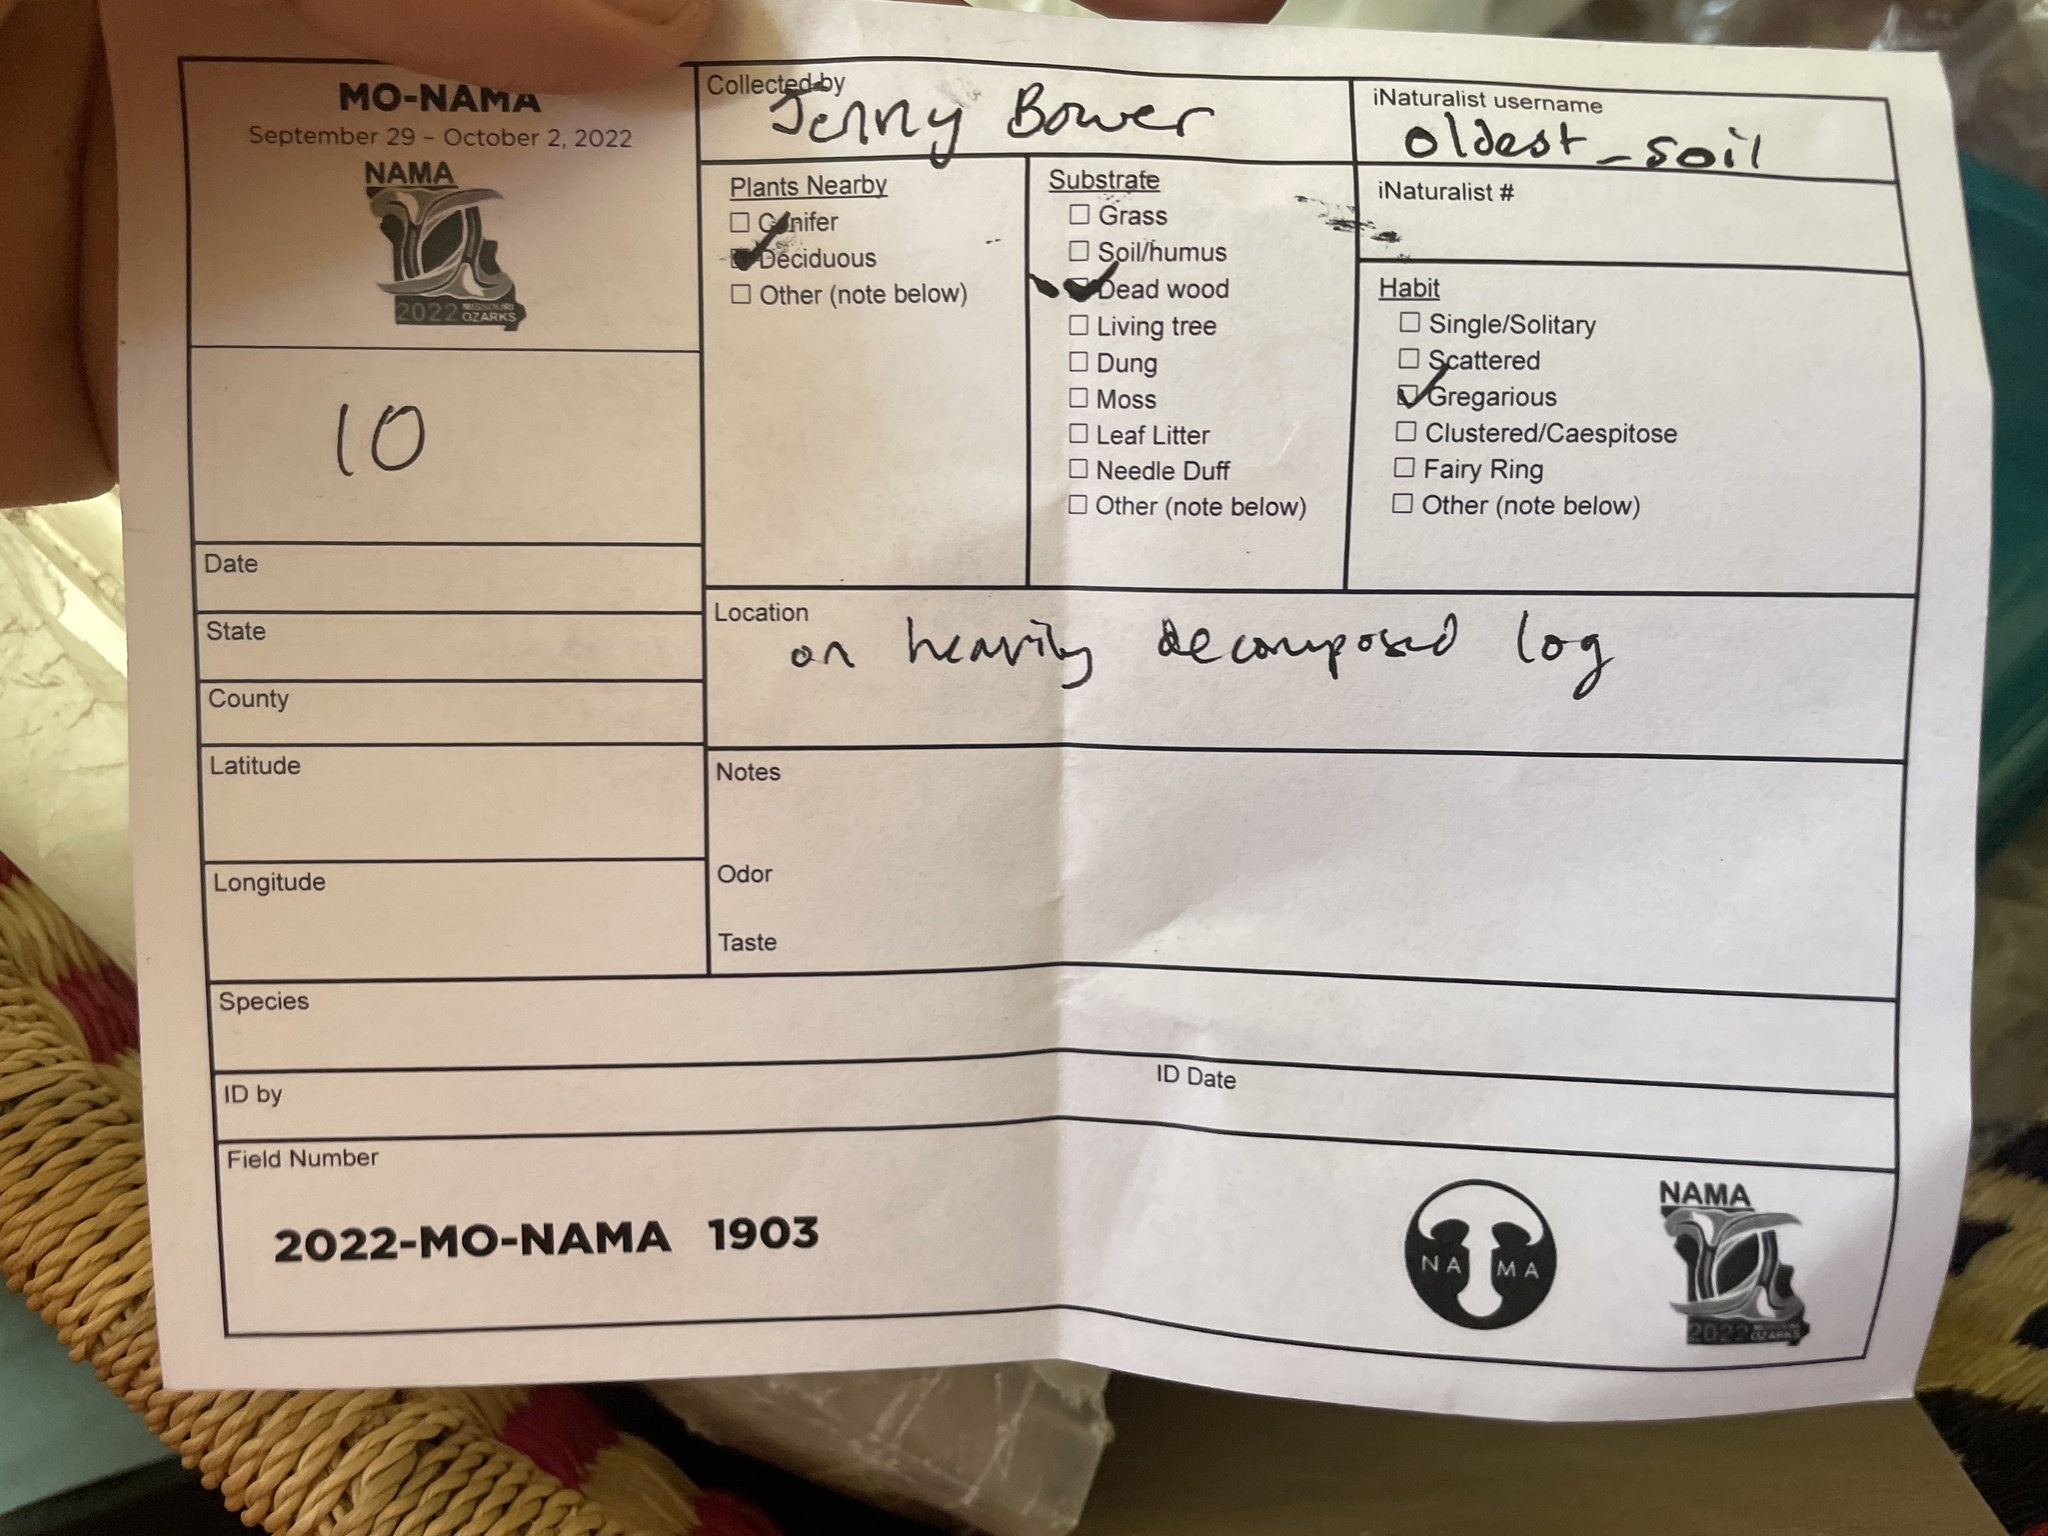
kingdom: Fungi
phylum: Ascomycota
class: Leotiomycetes
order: Helotiales
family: Chlorospleniaceae
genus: Chlorosplenium
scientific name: Chlorosplenium chlora
